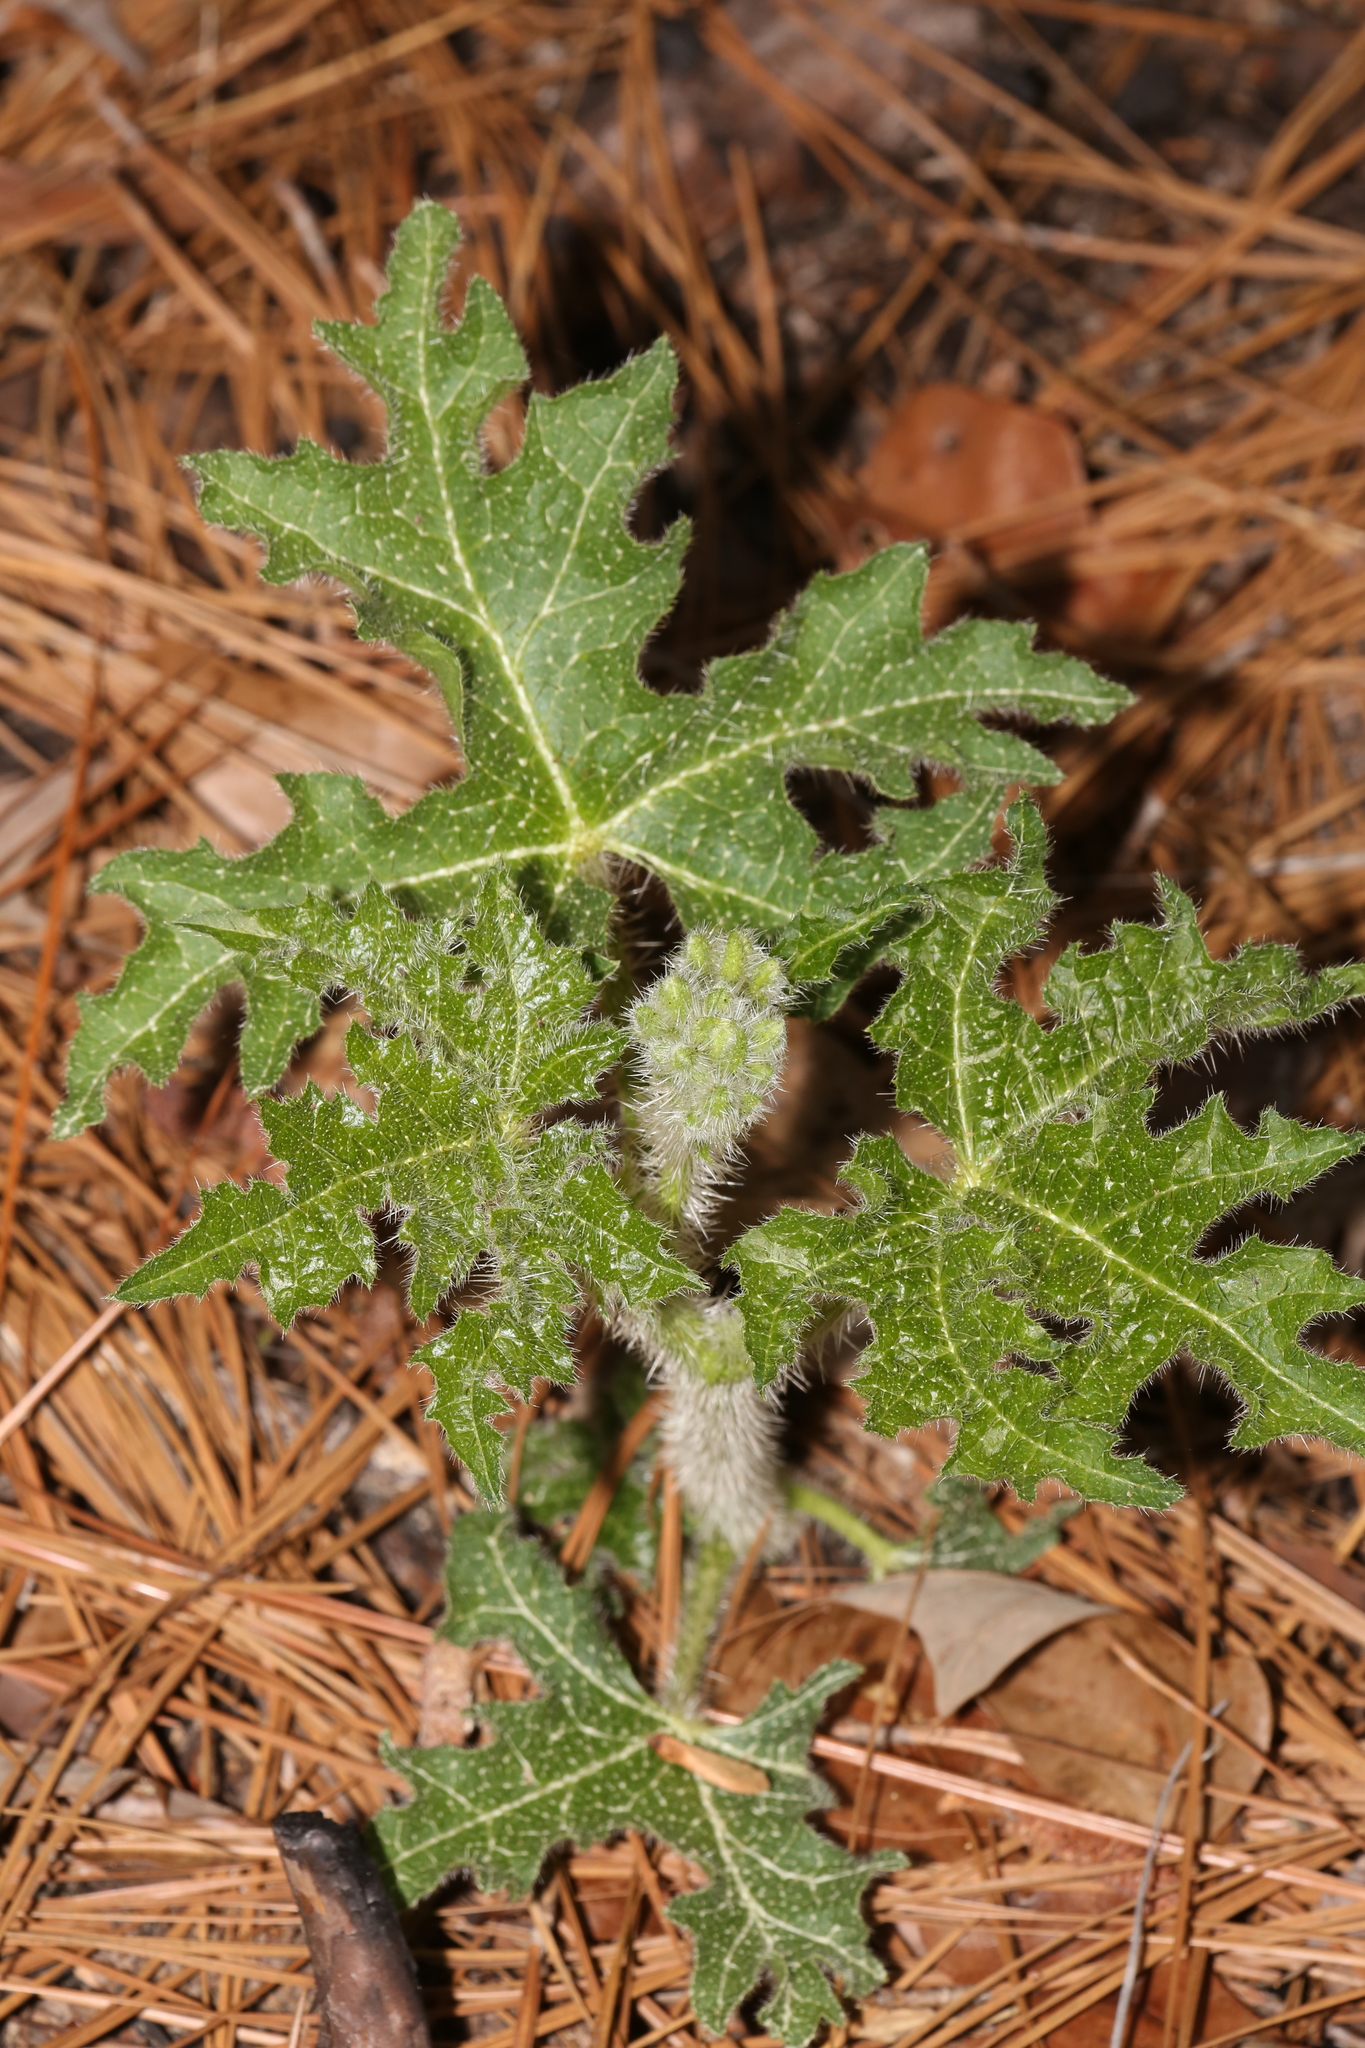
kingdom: Plantae
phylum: Tracheophyta
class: Magnoliopsida
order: Malpighiales
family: Euphorbiaceae
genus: Cnidoscolus
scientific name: Cnidoscolus texanus
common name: Texas bull-nettle
